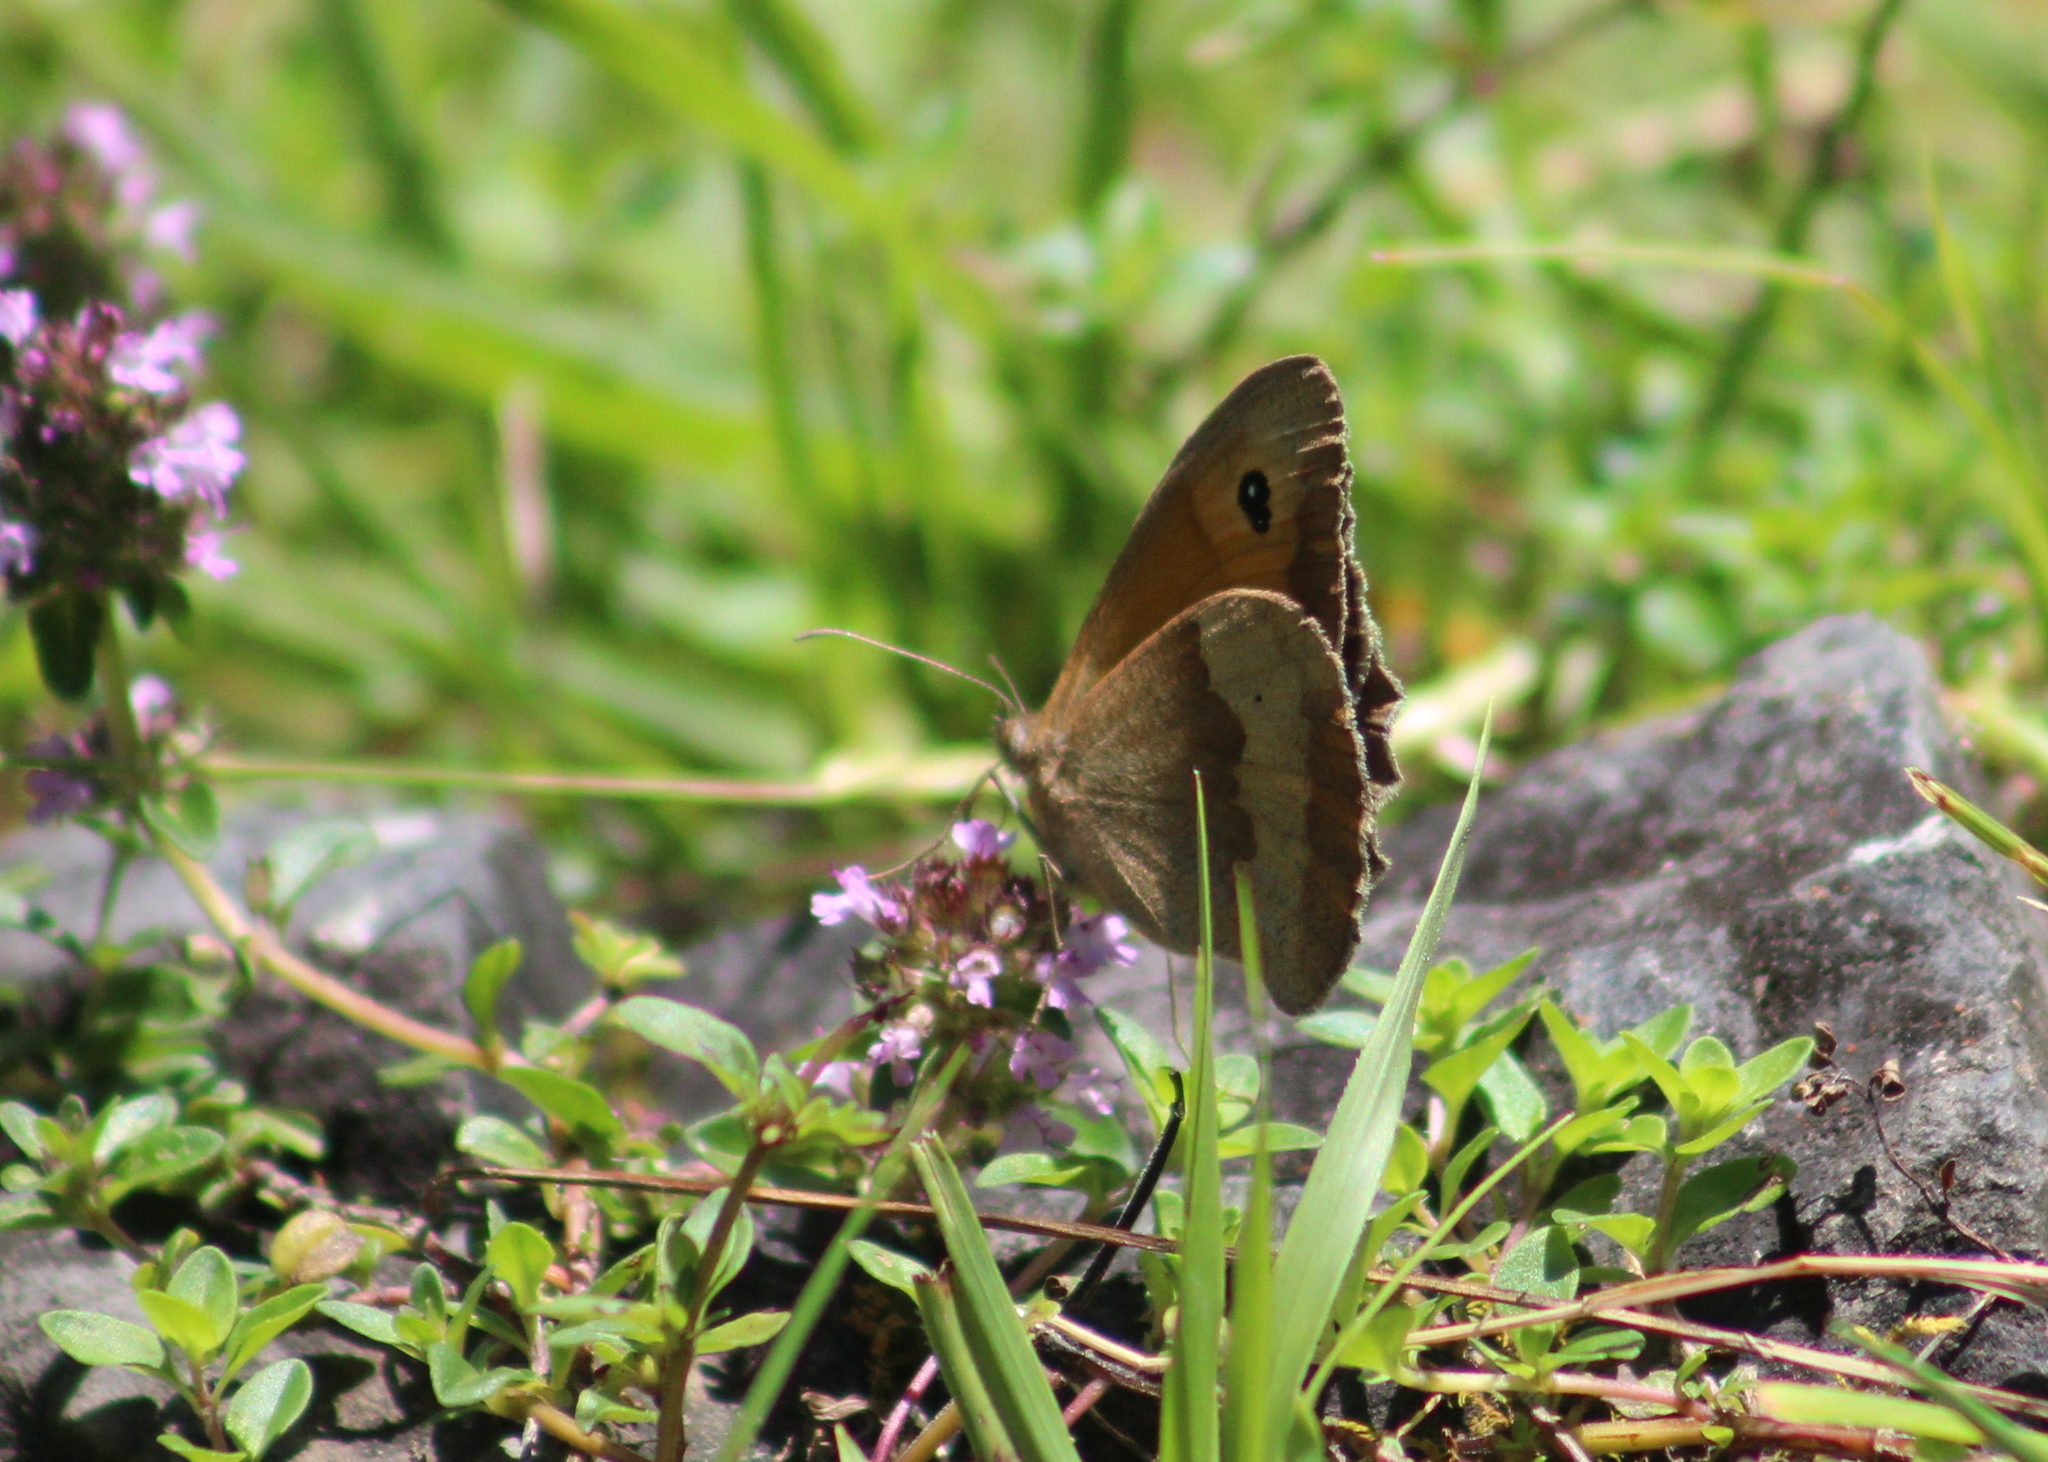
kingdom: Animalia
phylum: Arthropoda
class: Insecta
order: Lepidoptera
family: Nymphalidae
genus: Maniola
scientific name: Maniola jurtina
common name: Meadow brown
